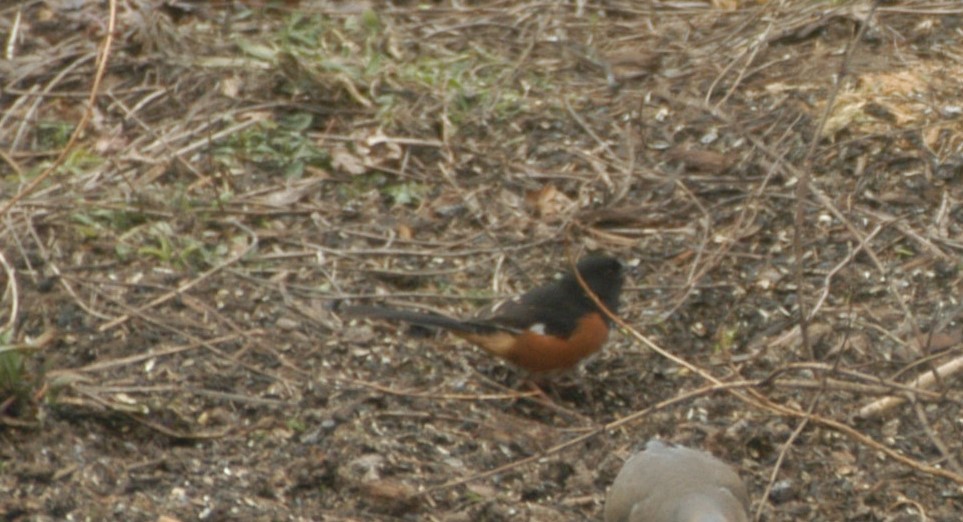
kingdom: Animalia
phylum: Chordata
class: Aves
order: Passeriformes
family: Passerellidae
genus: Pipilo
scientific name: Pipilo erythrophthalmus
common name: Eastern towhee
